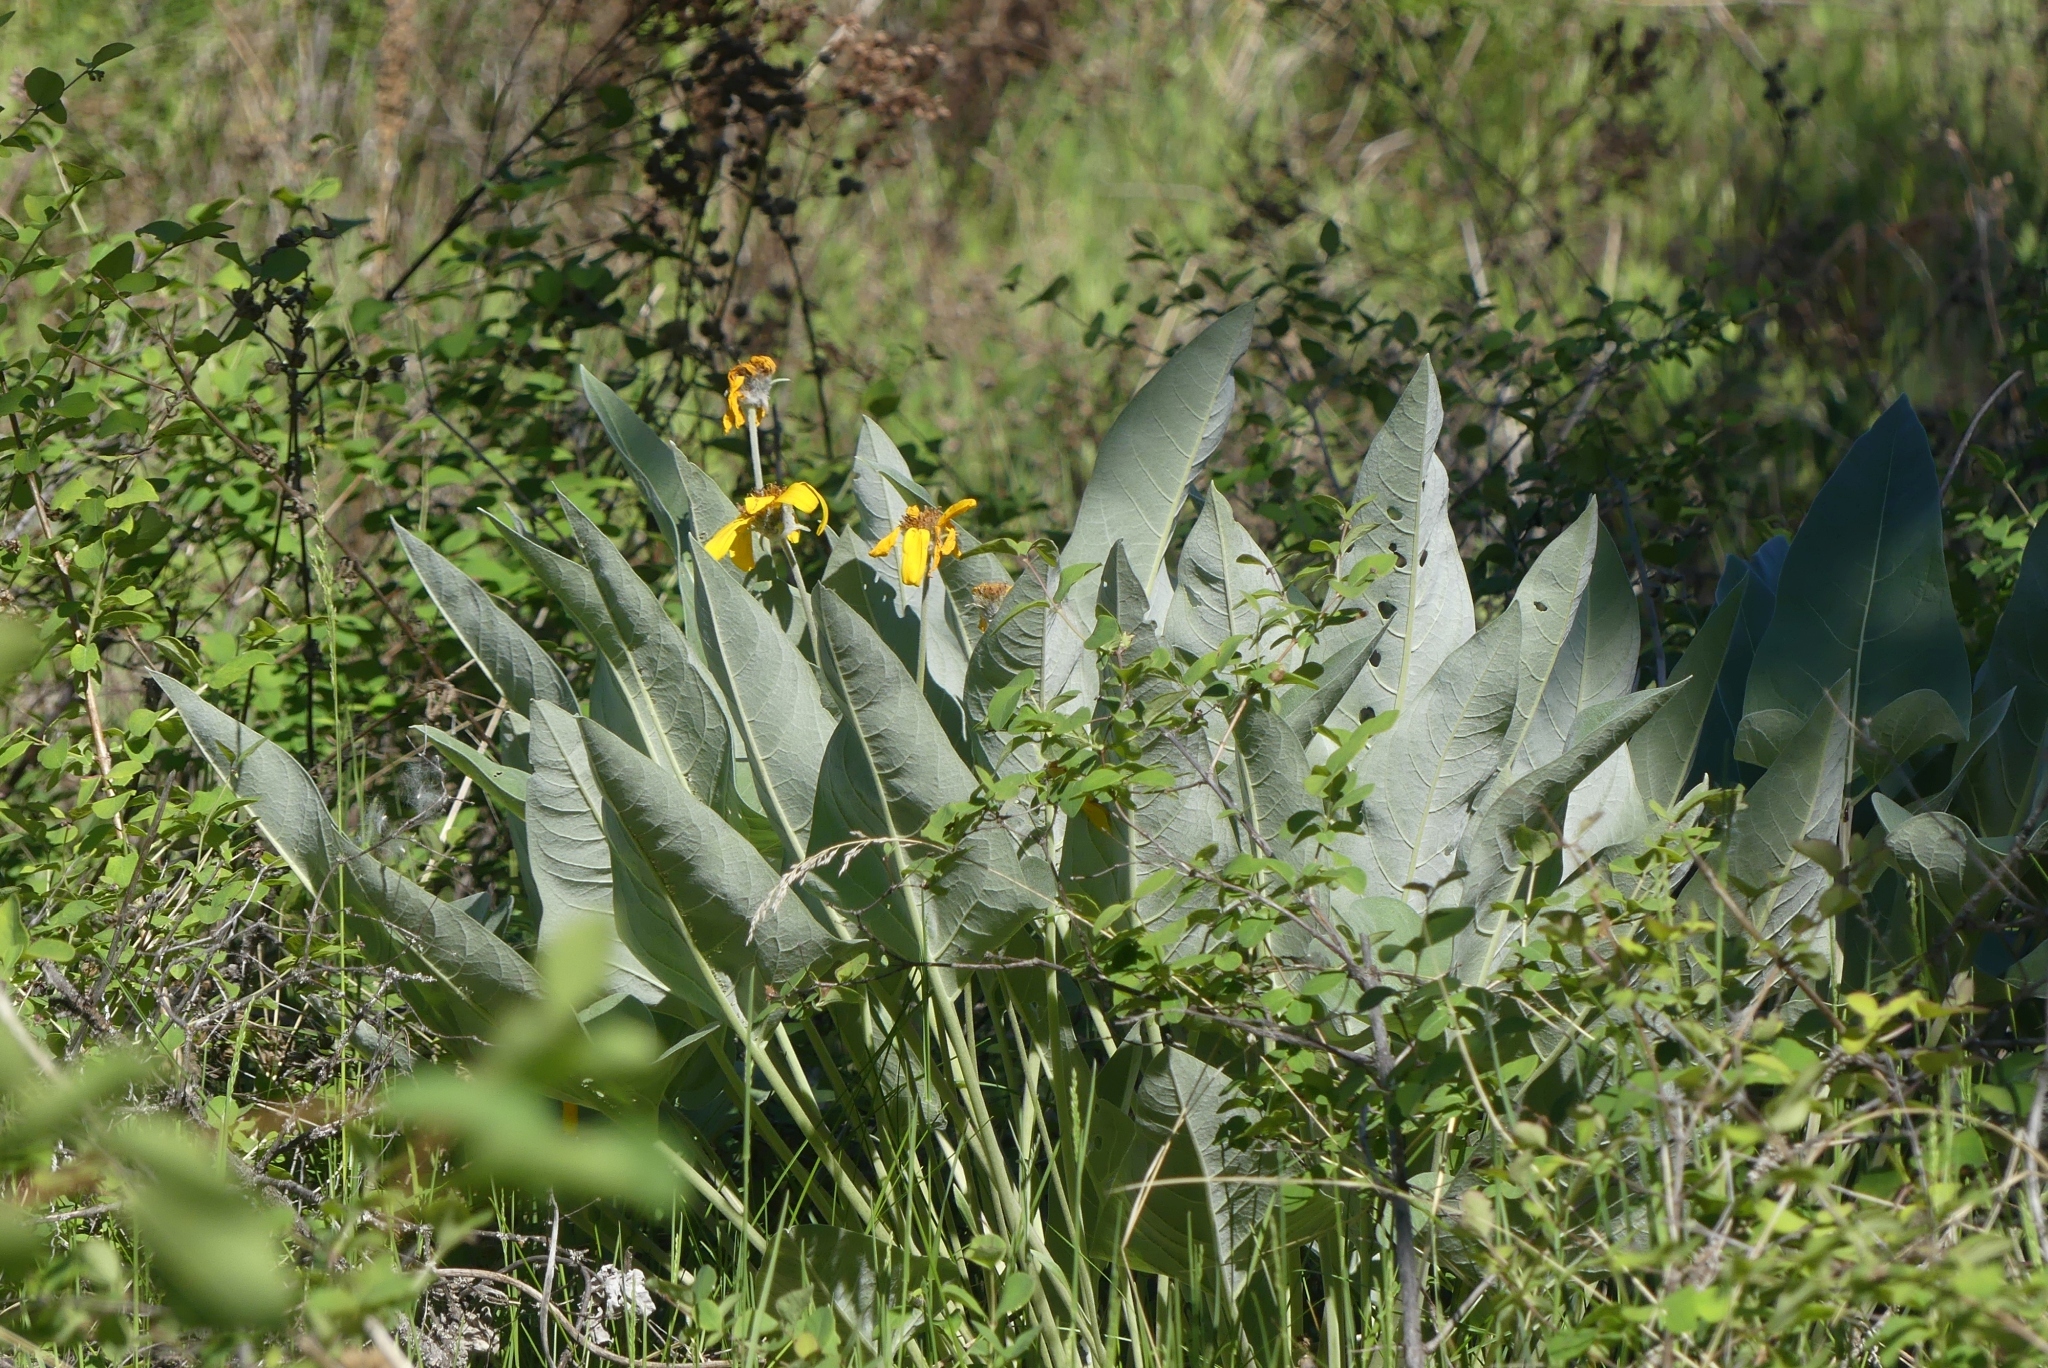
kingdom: Plantae
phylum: Tracheophyta
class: Magnoliopsida
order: Asterales
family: Asteraceae
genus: Wyethia
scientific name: Wyethia sagittata
